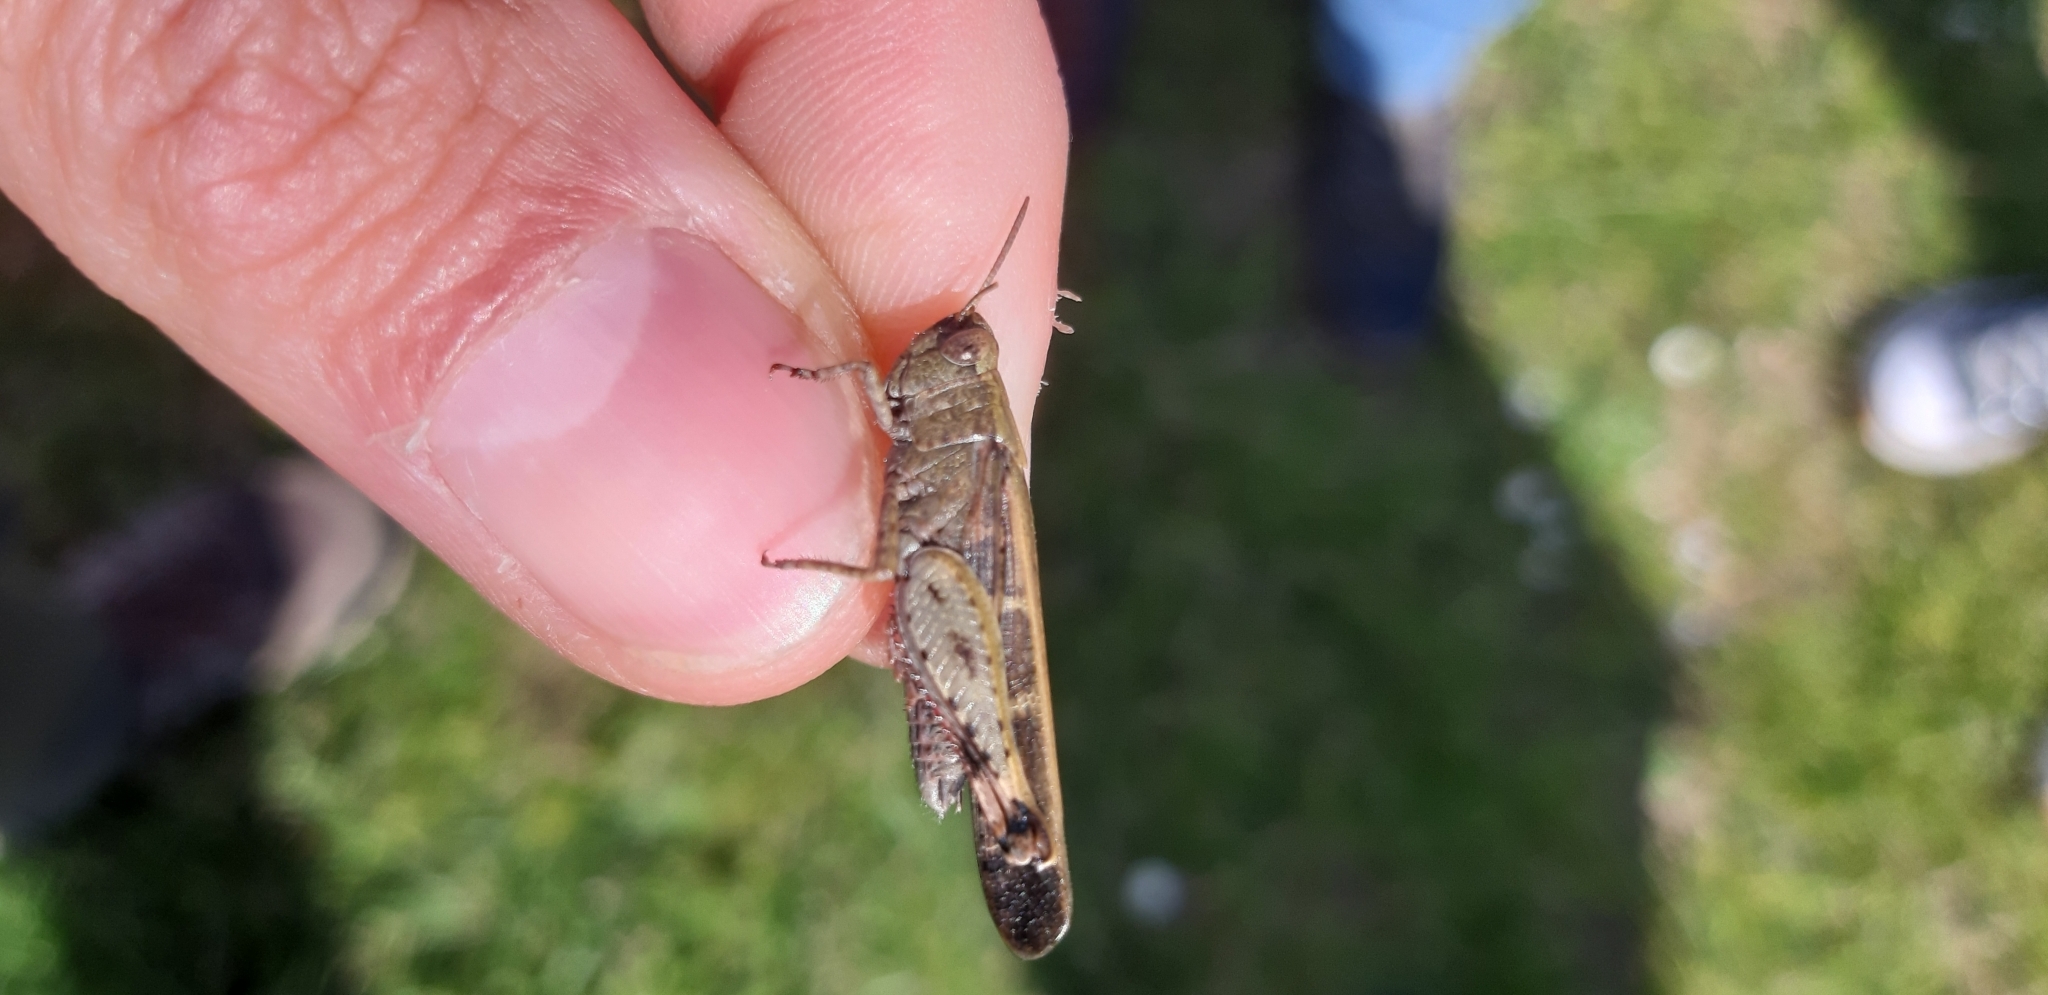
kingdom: Animalia
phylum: Arthropoda
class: Insecta
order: Orthoptera
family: Acrididae
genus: Aiolopus
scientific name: Aiolopus strepens
